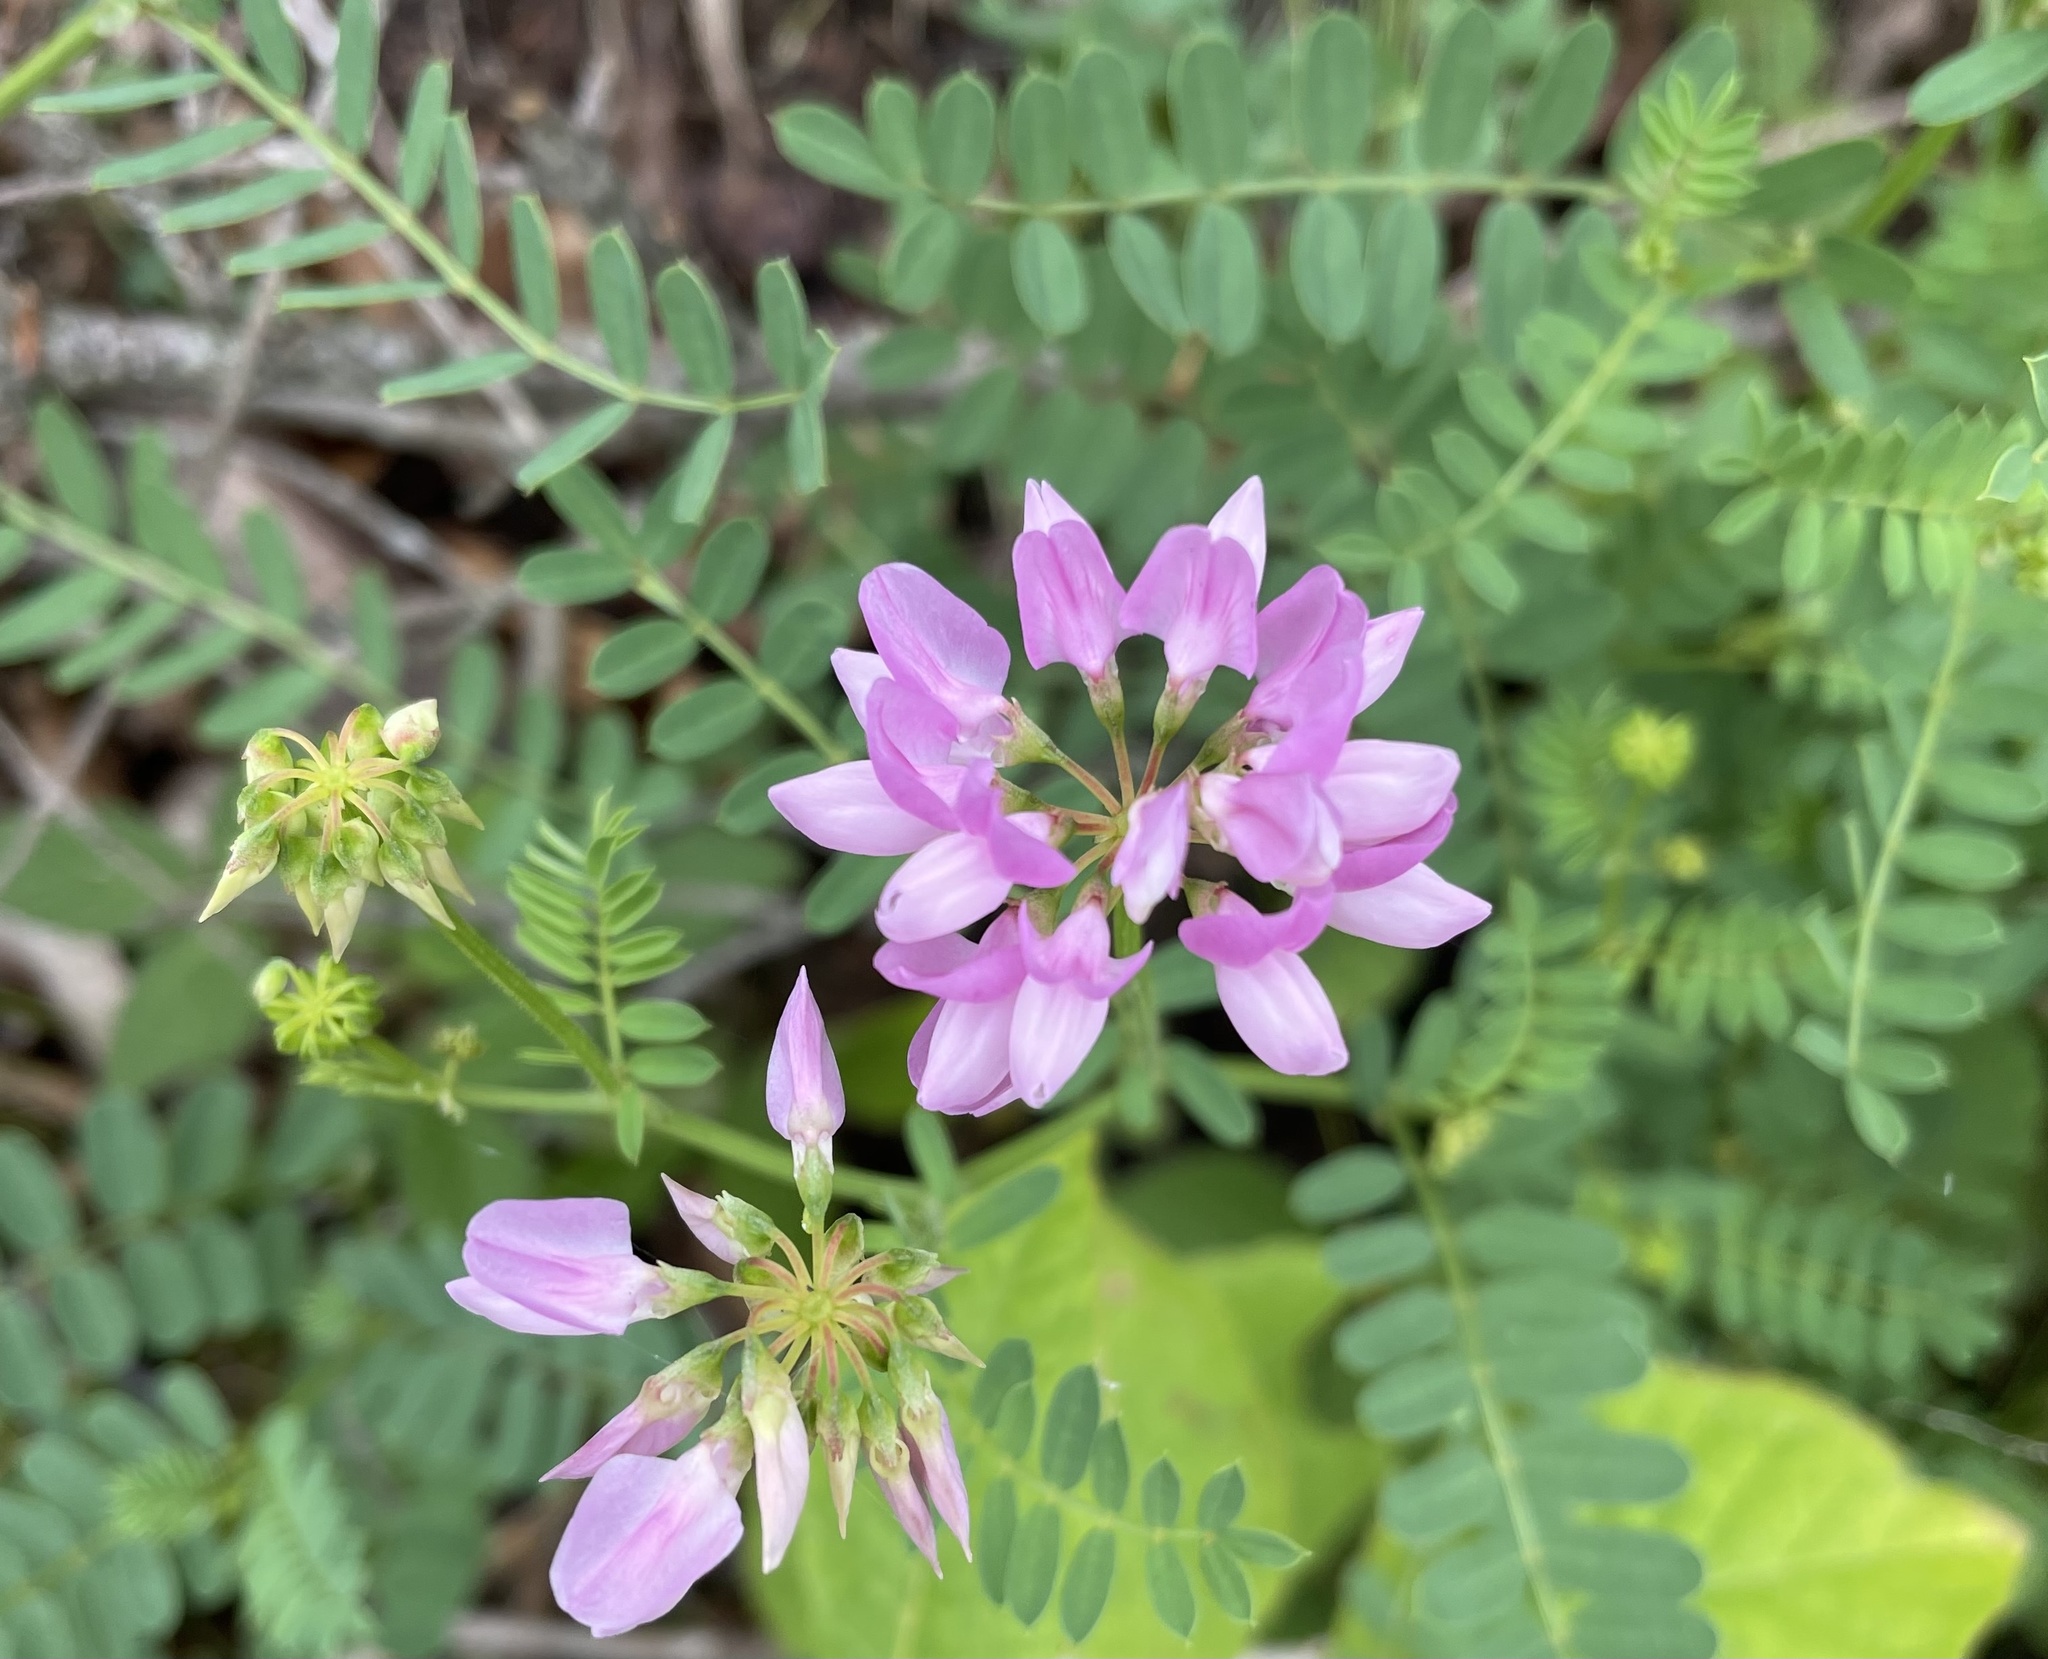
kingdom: Plantae
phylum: Tracheophyta
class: Magnoliopsida
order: Fabales
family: Fabaceae
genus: Coronilla
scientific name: Coronilla varia
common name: Crownvetch
